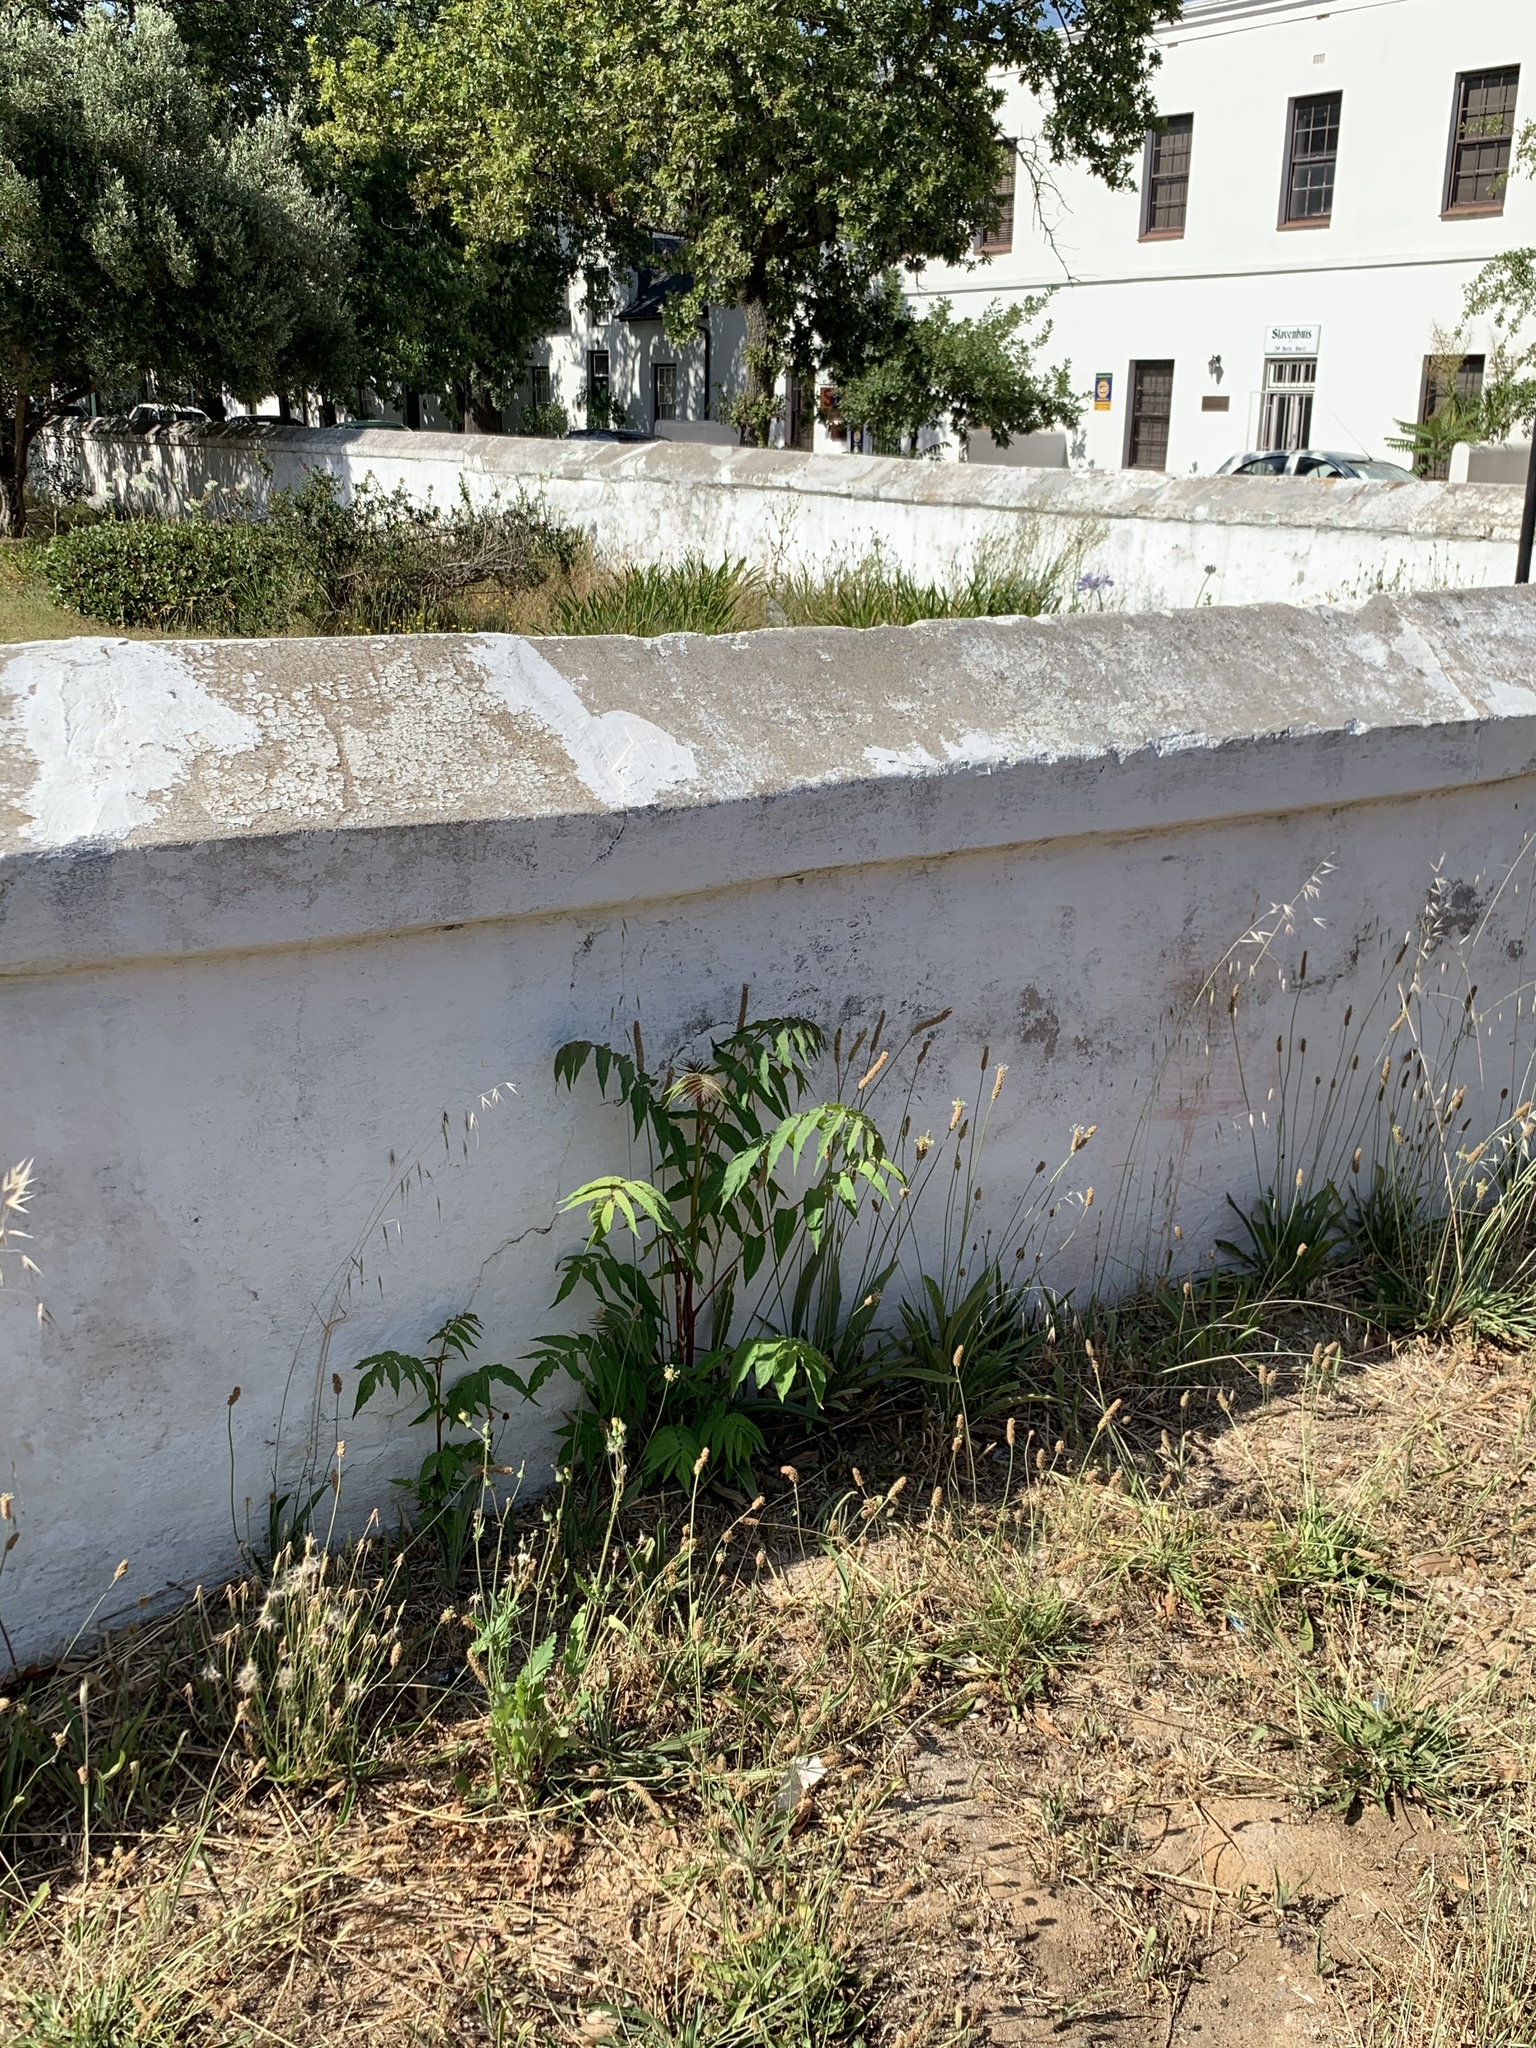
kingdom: Plantae
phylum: Tracheophyta
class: Magnoliopsida
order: Sapindales
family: Simaroubaceae
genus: Ailanthus
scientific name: Ailanthus altissima
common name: Tree-of-heaven
